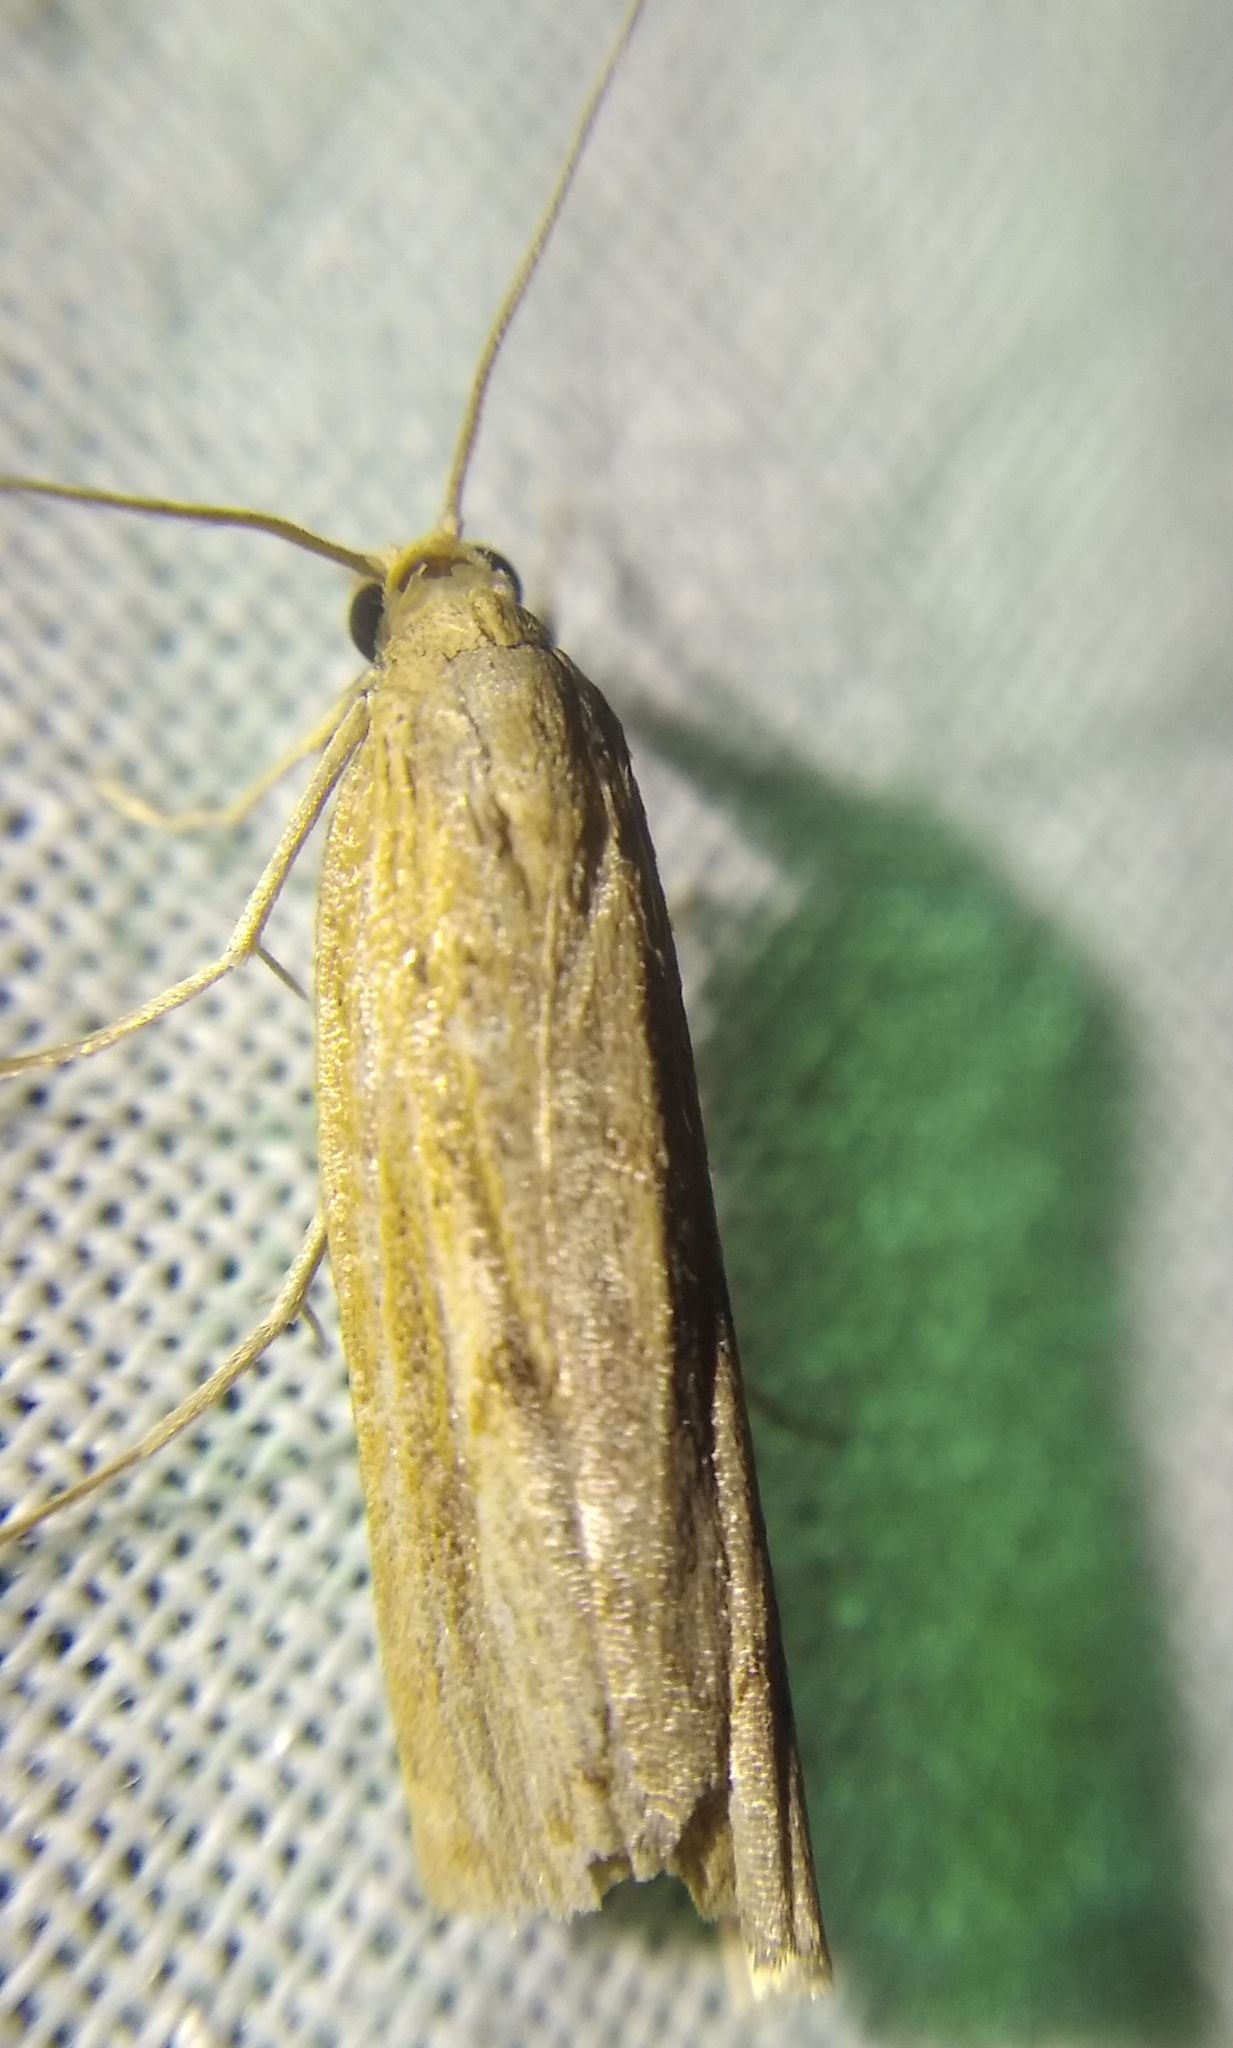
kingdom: Animalia
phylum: Arthropoda
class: Insecta
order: Lepidoptera
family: Crambidae
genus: Pediasia
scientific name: Pediasia contaminella
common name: Waste grass-veneer
